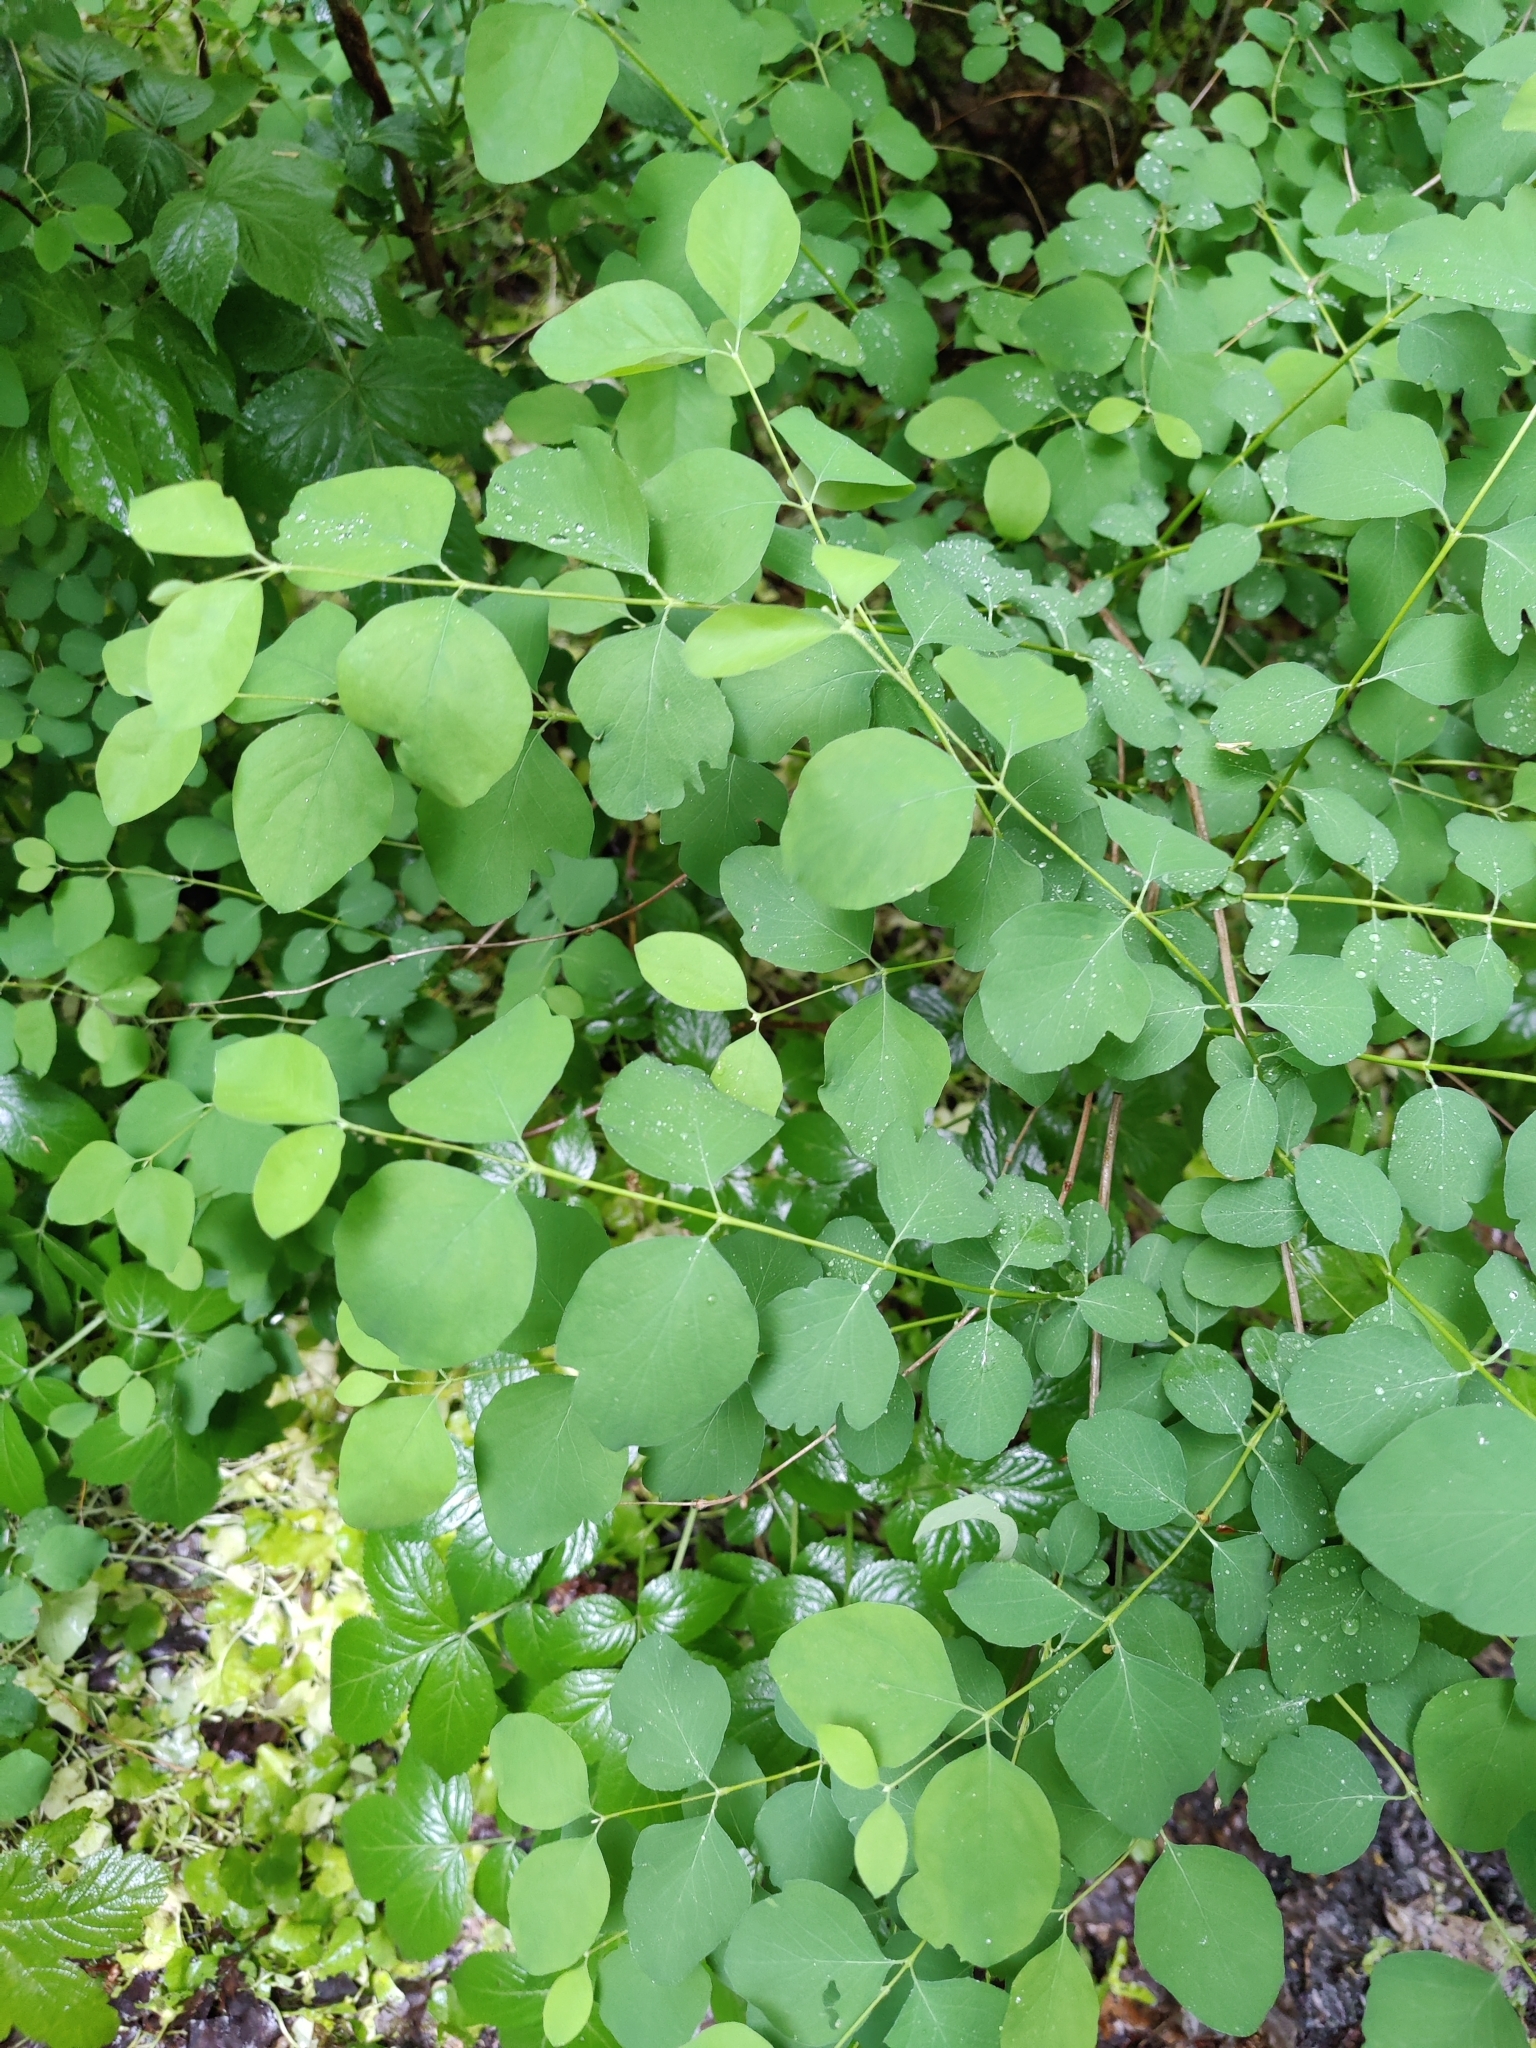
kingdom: Plantae
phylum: Tracheophyta
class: Magnoliopsida
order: Dipsacales
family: Caprifoliaceae
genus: Symphoricarpos
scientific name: Symphoricarpos albus
